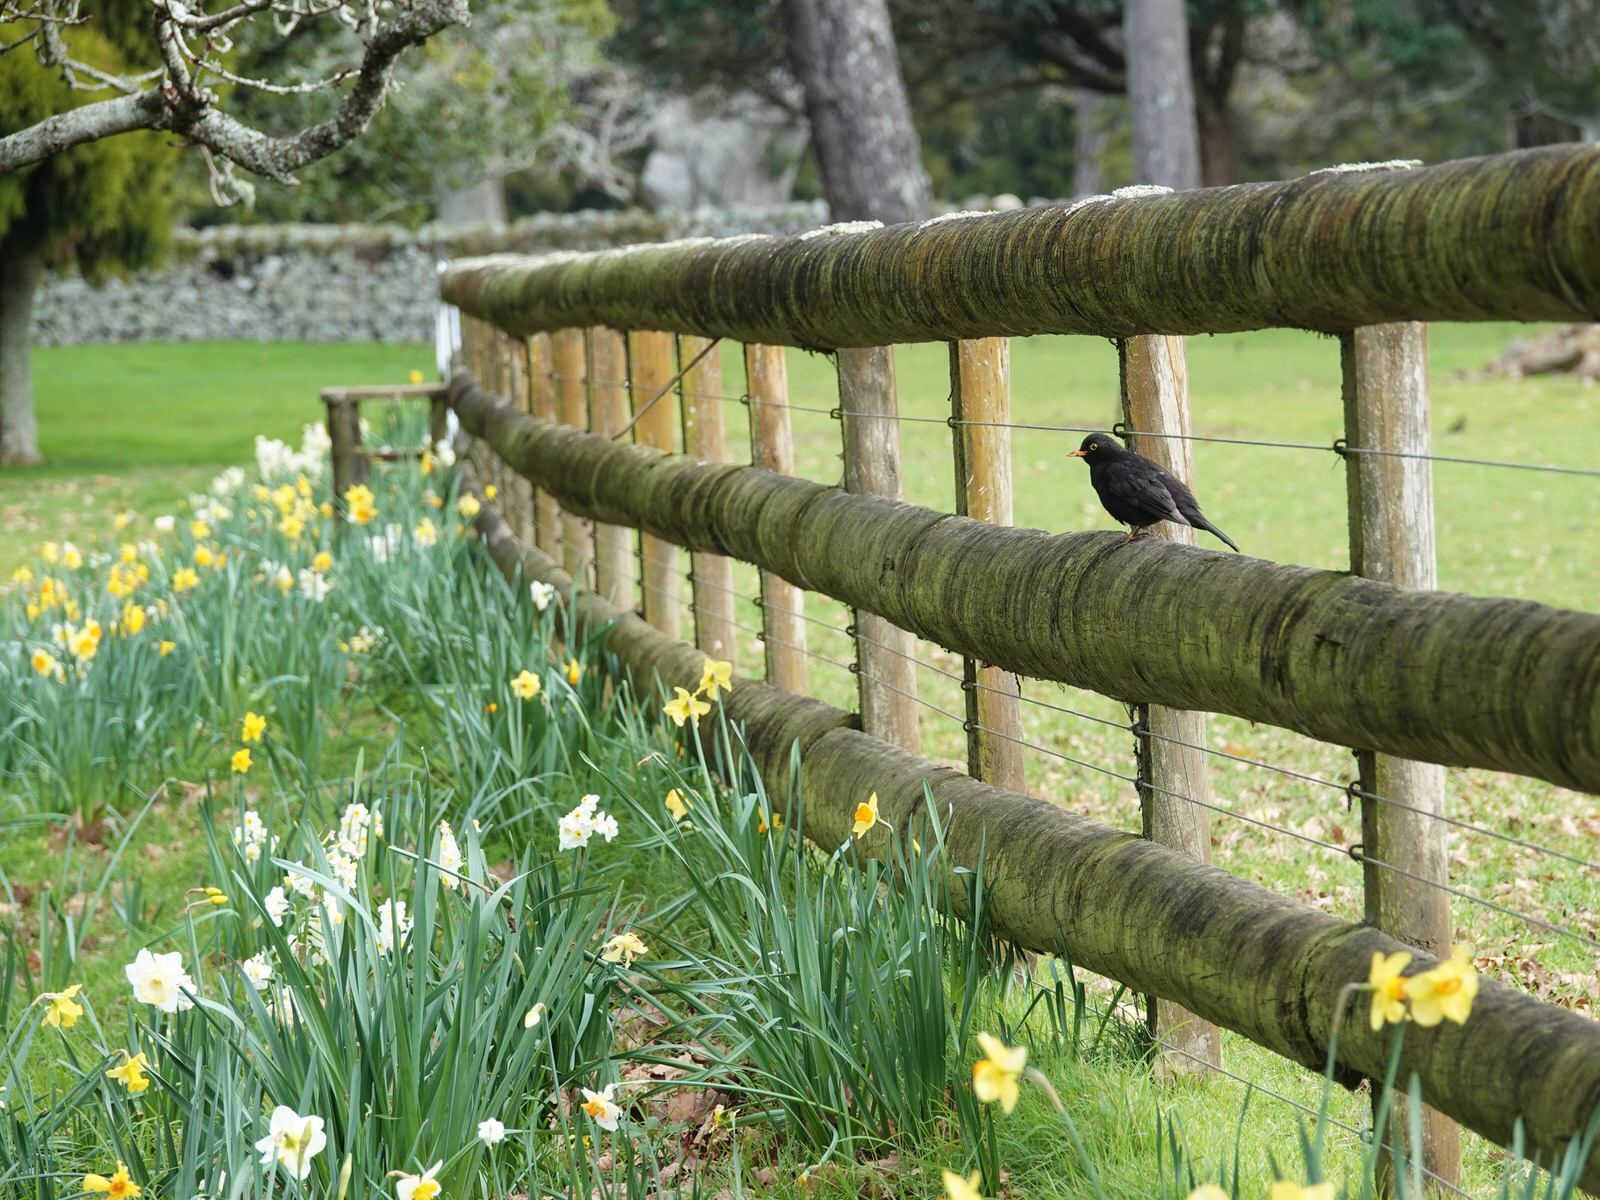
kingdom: Animalia
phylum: Chordata
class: Aves
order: Passeriformes
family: Turdidae
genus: Turdus
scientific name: Turdus merula
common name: Common blackbird
